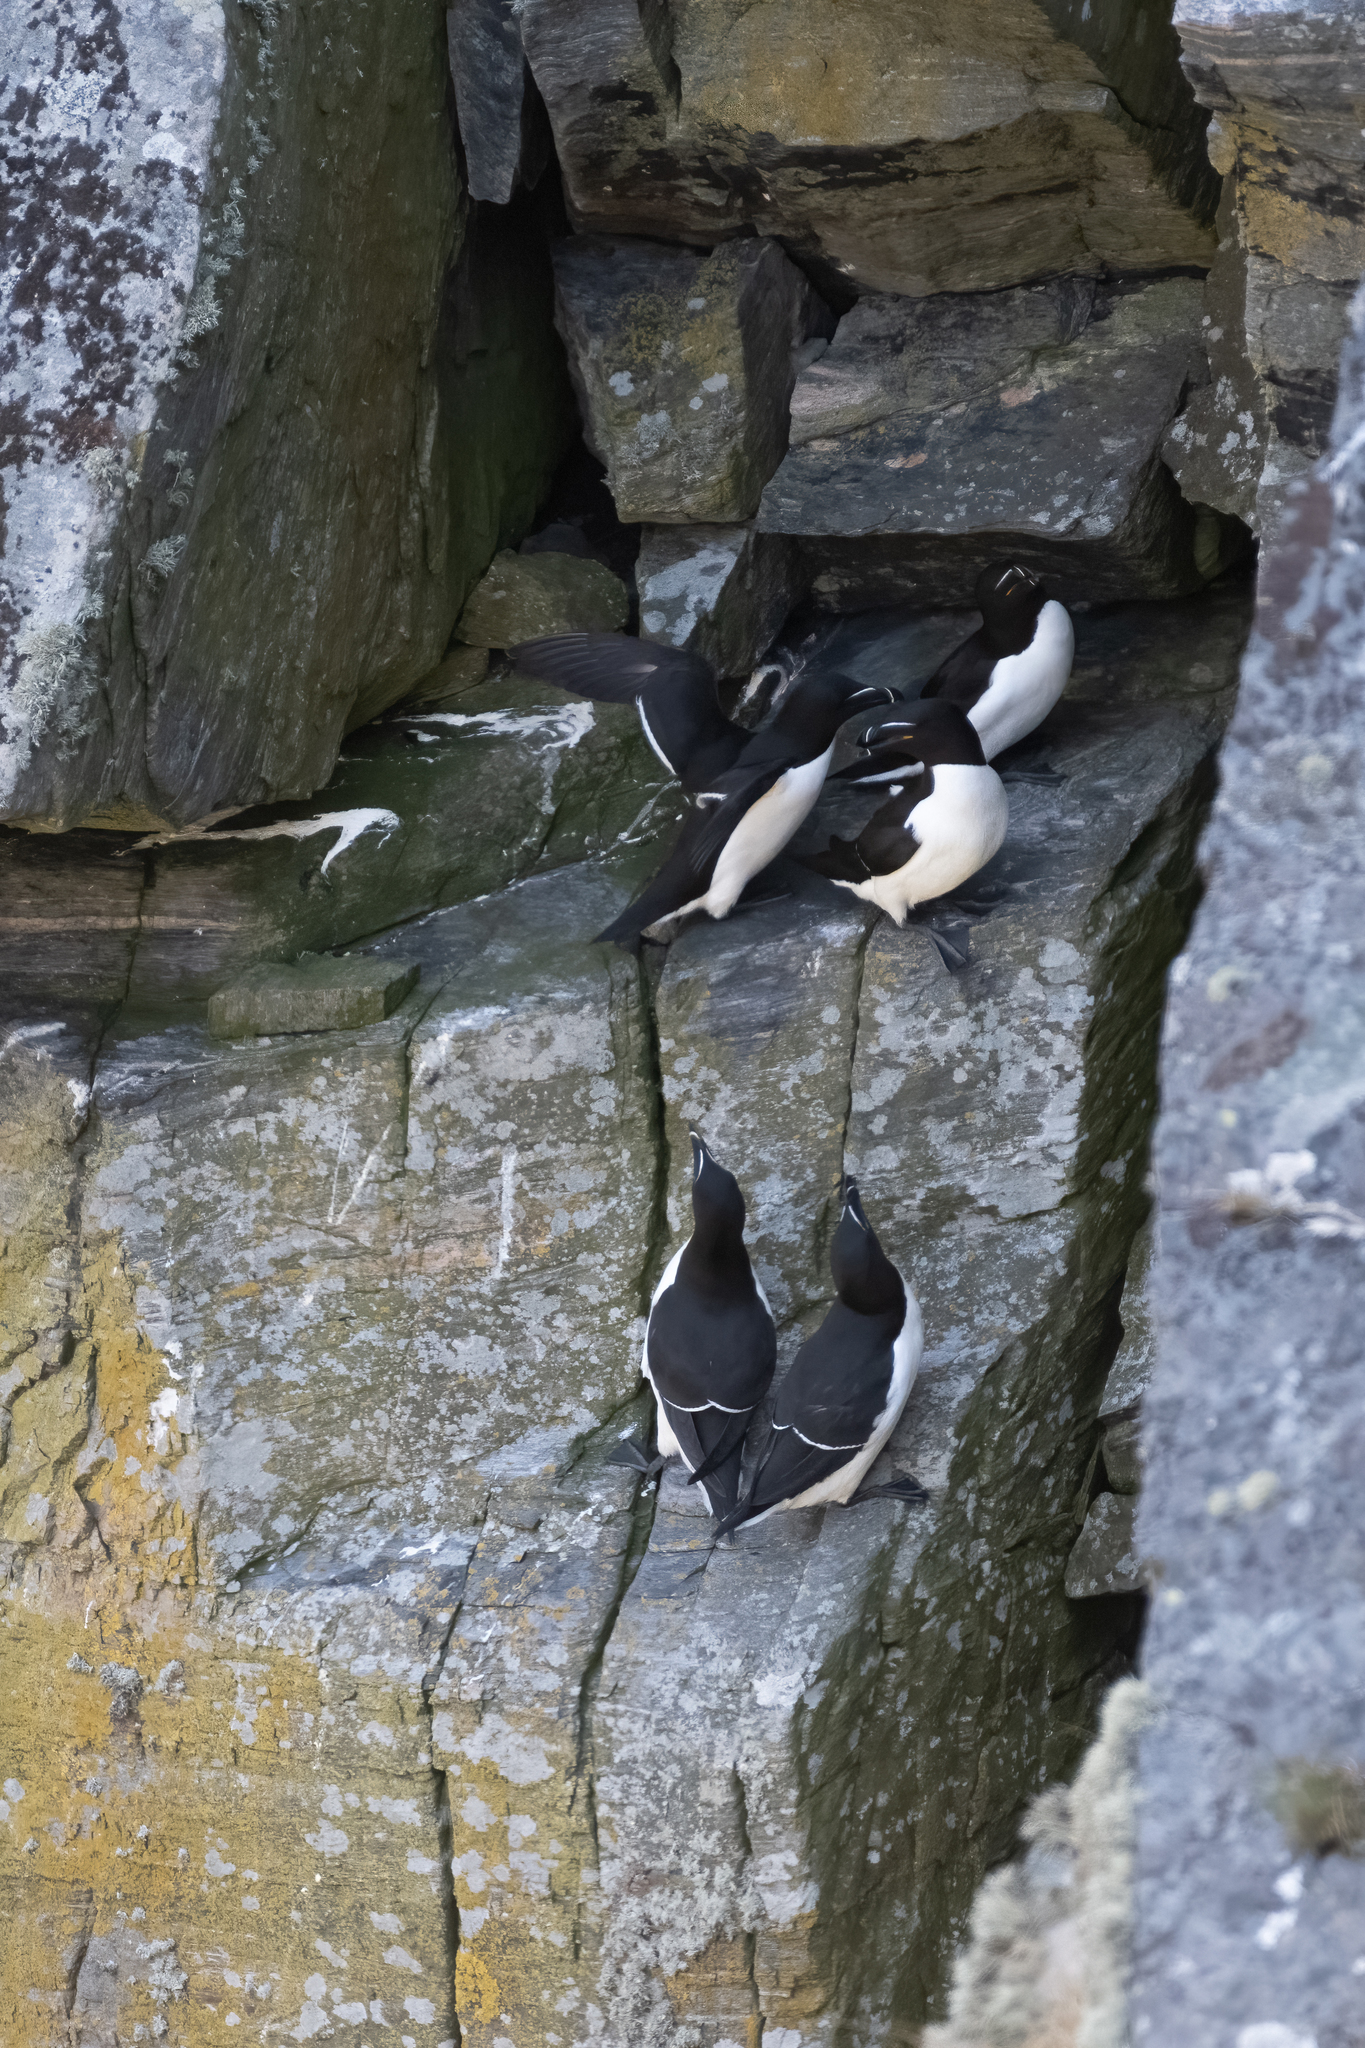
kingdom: Animalia
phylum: Chordata
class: Aves
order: Charadriiformes
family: Alcidae
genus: Alca
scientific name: Alca torda
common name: Razorbill
